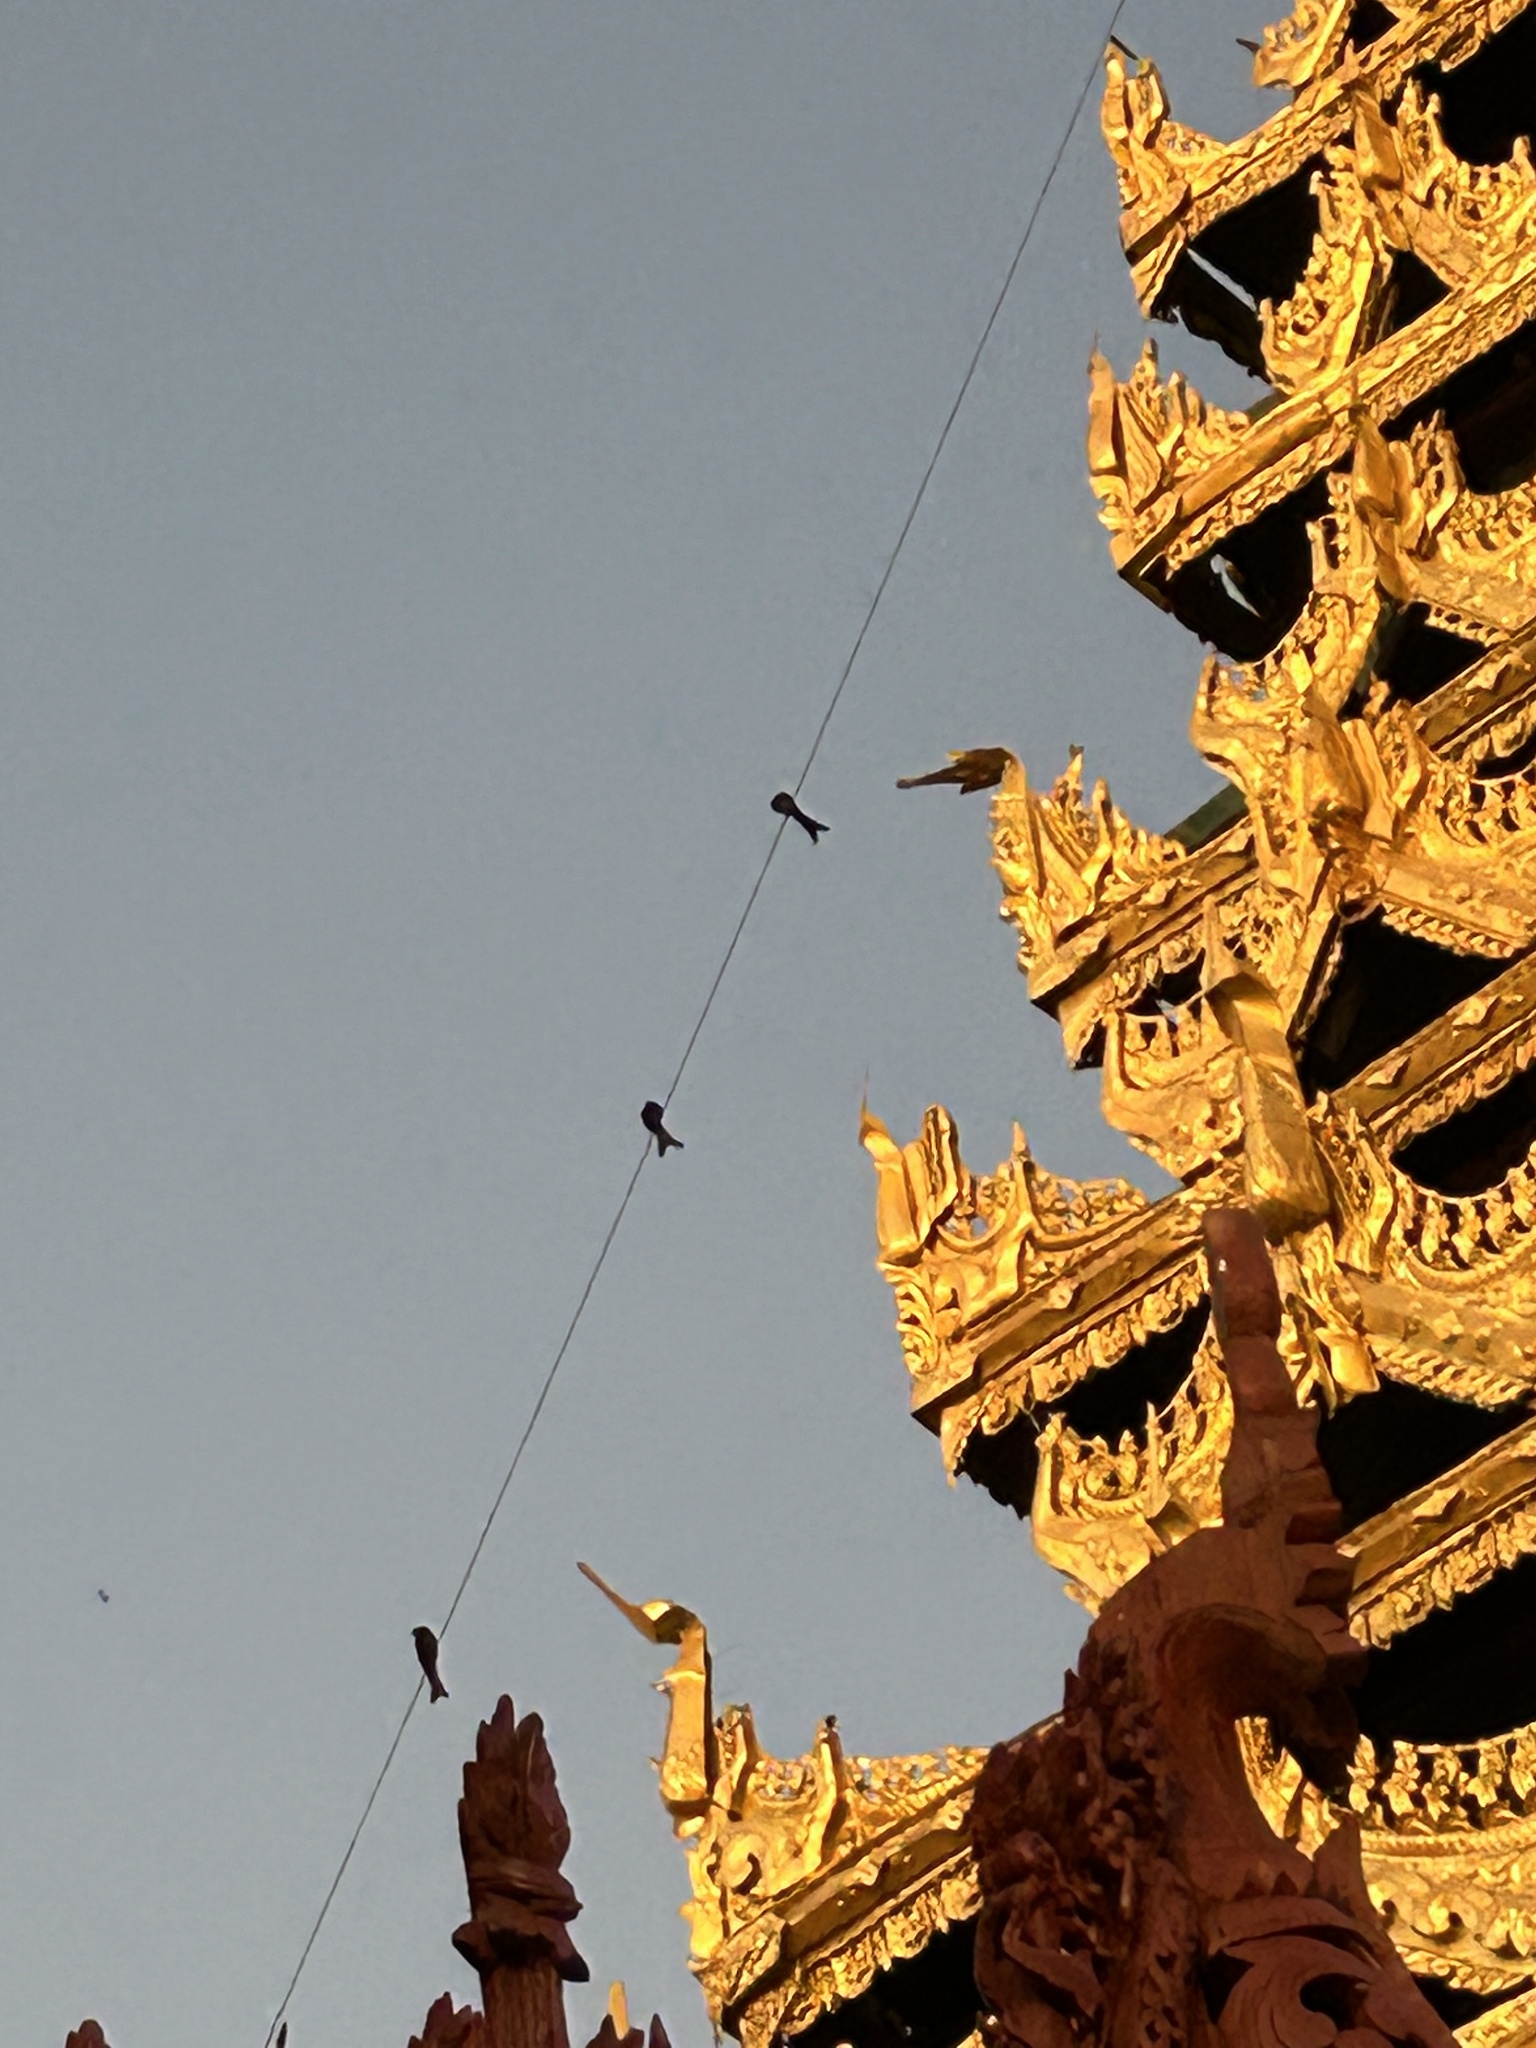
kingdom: Animalia
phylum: Chordata
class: Aves
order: Passeriformes
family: Dicruridae
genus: Dicrurus
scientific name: Dicrurus macrocercus
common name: Black drongo
